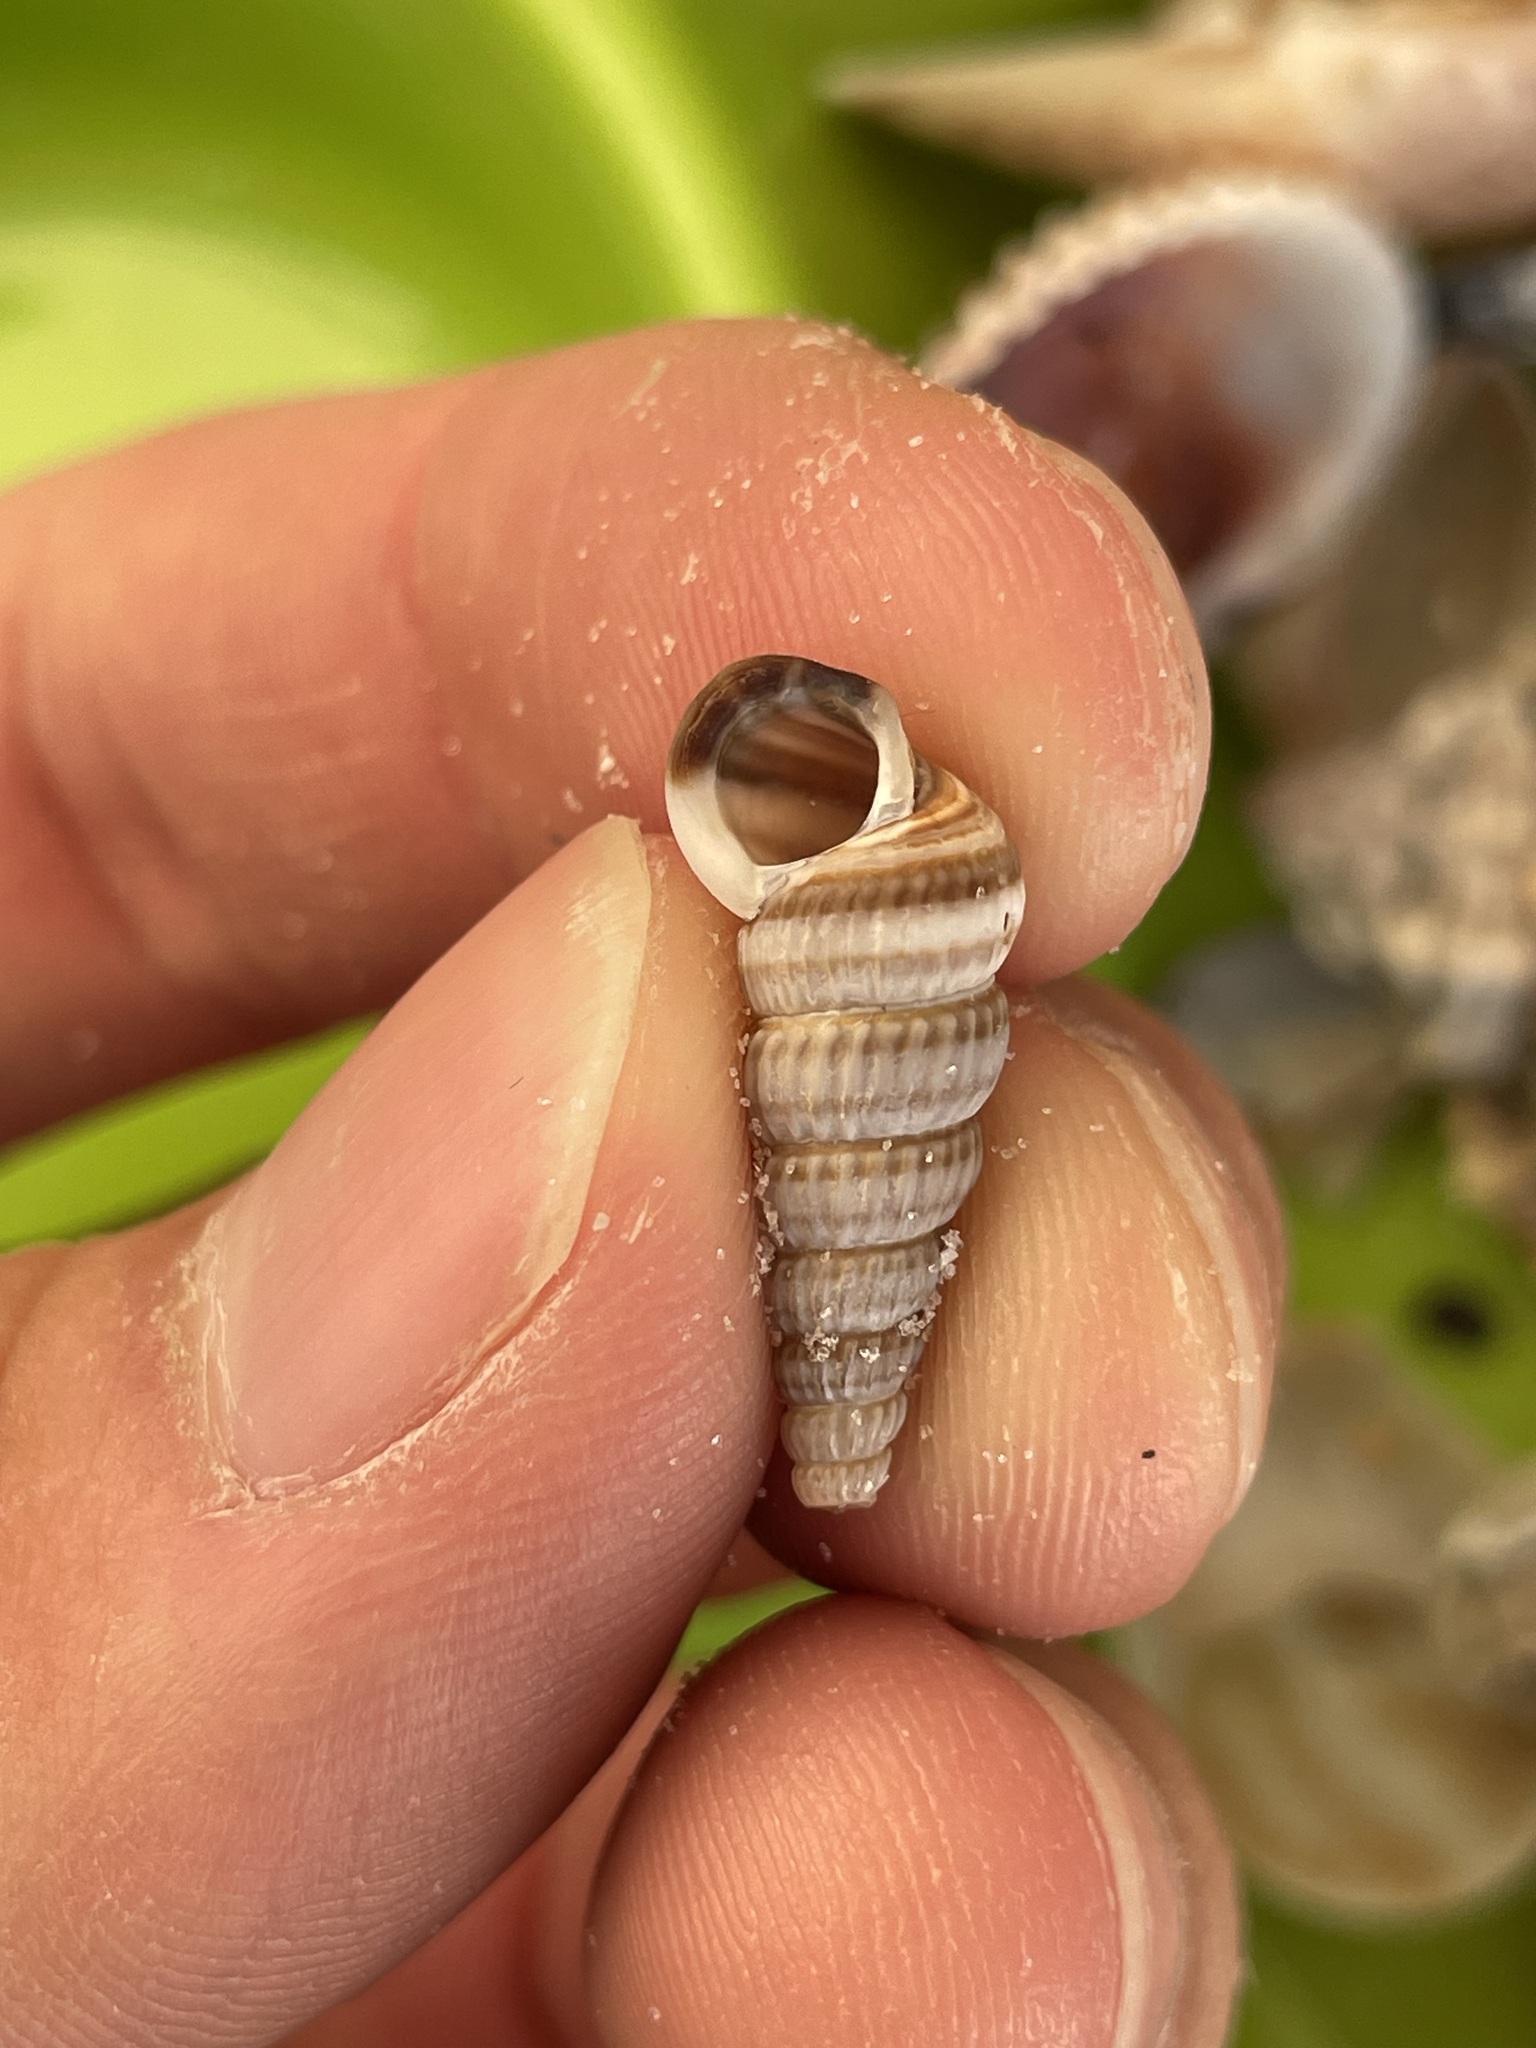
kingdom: Animalia
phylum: Mollusca
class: Gastropoda
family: Potamididae
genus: Cerithideopsis
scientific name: Cerithideopsis scalariformis
